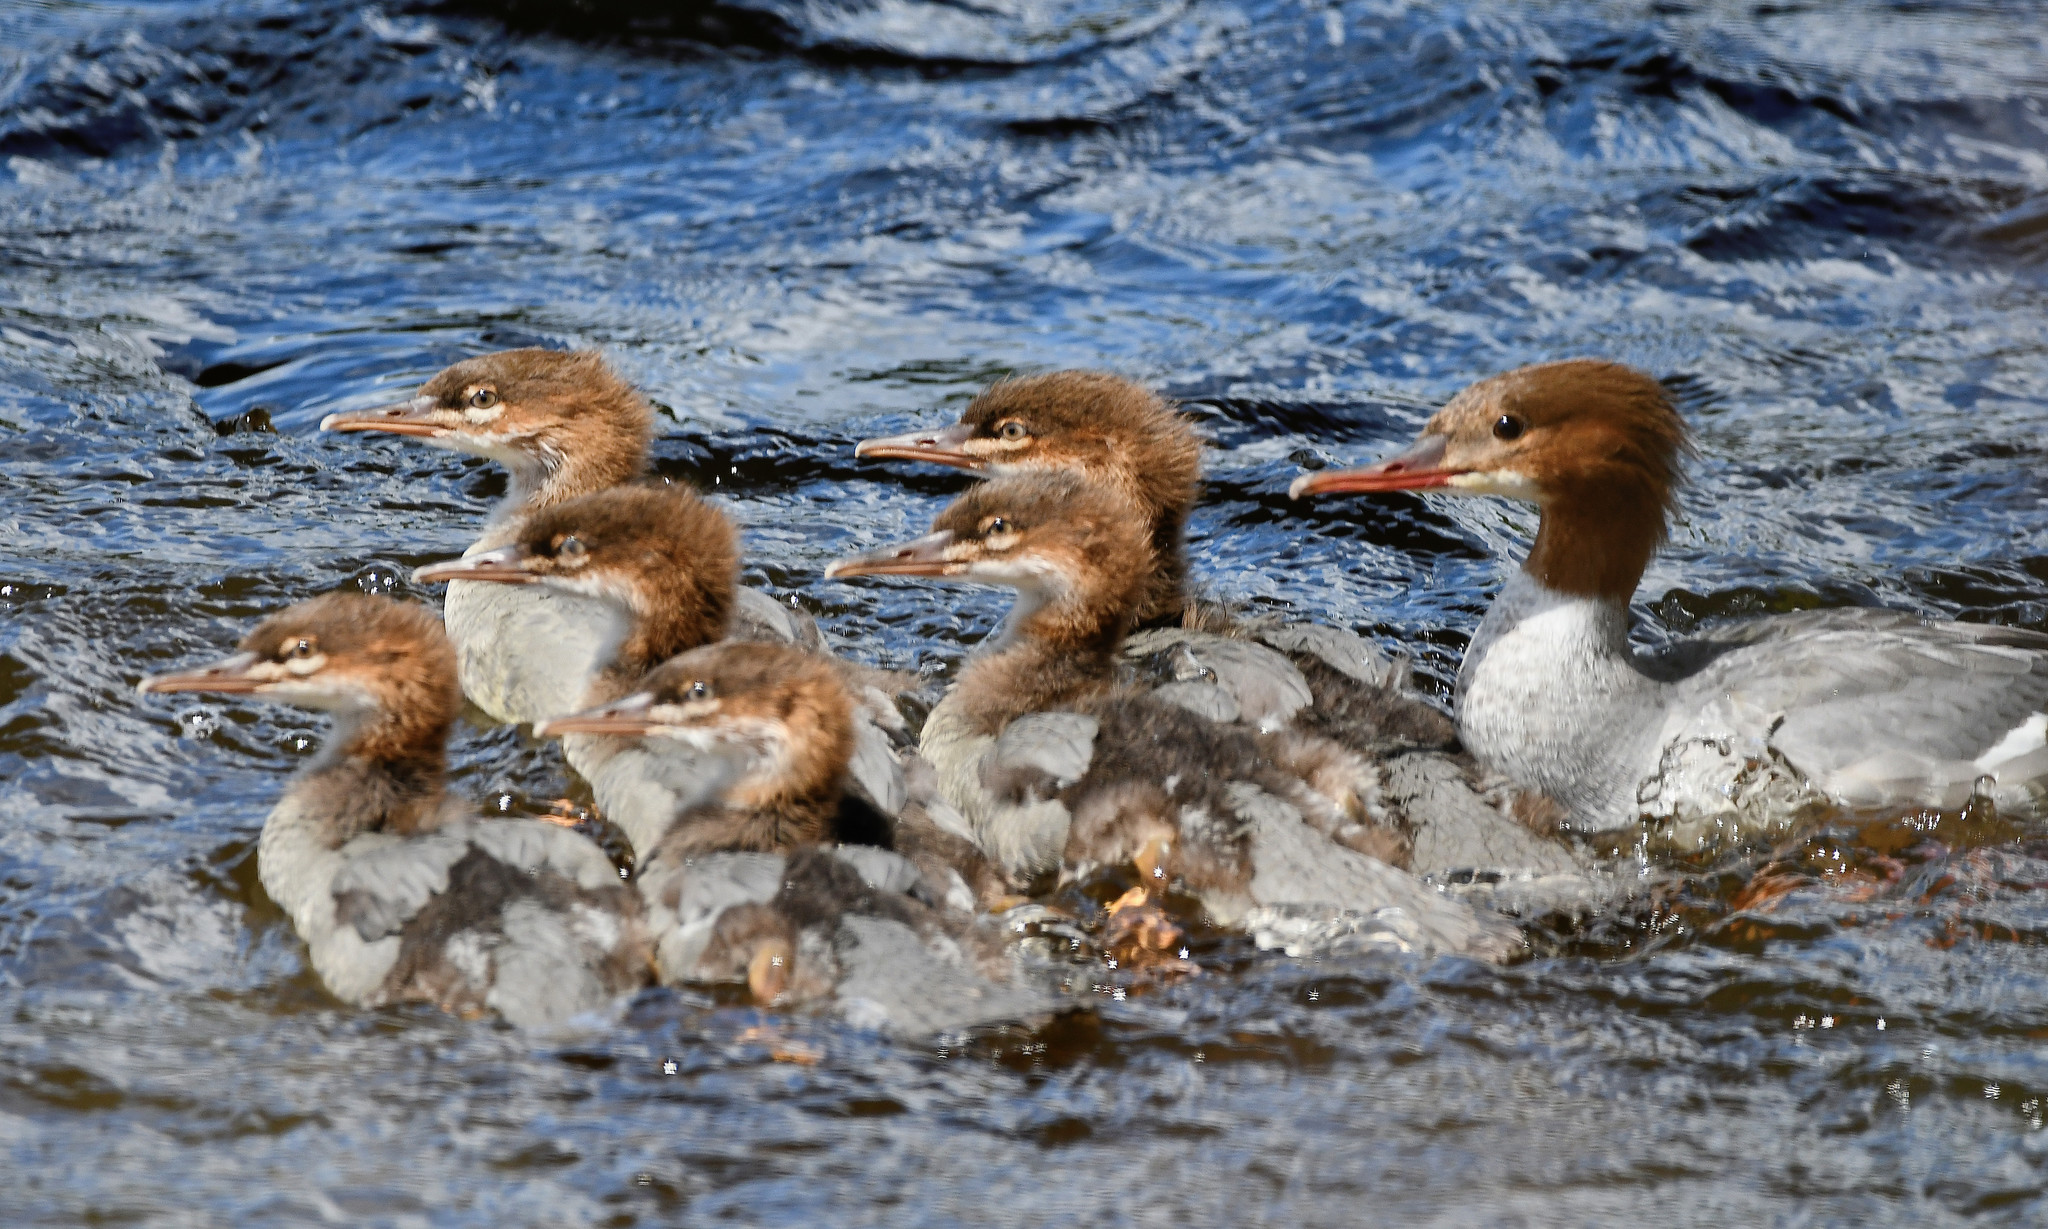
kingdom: Animalia
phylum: Chordata
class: Aves
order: Anseriformes
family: Anatidae
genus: Mergus
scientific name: Mergus merganser
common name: Common merganser
